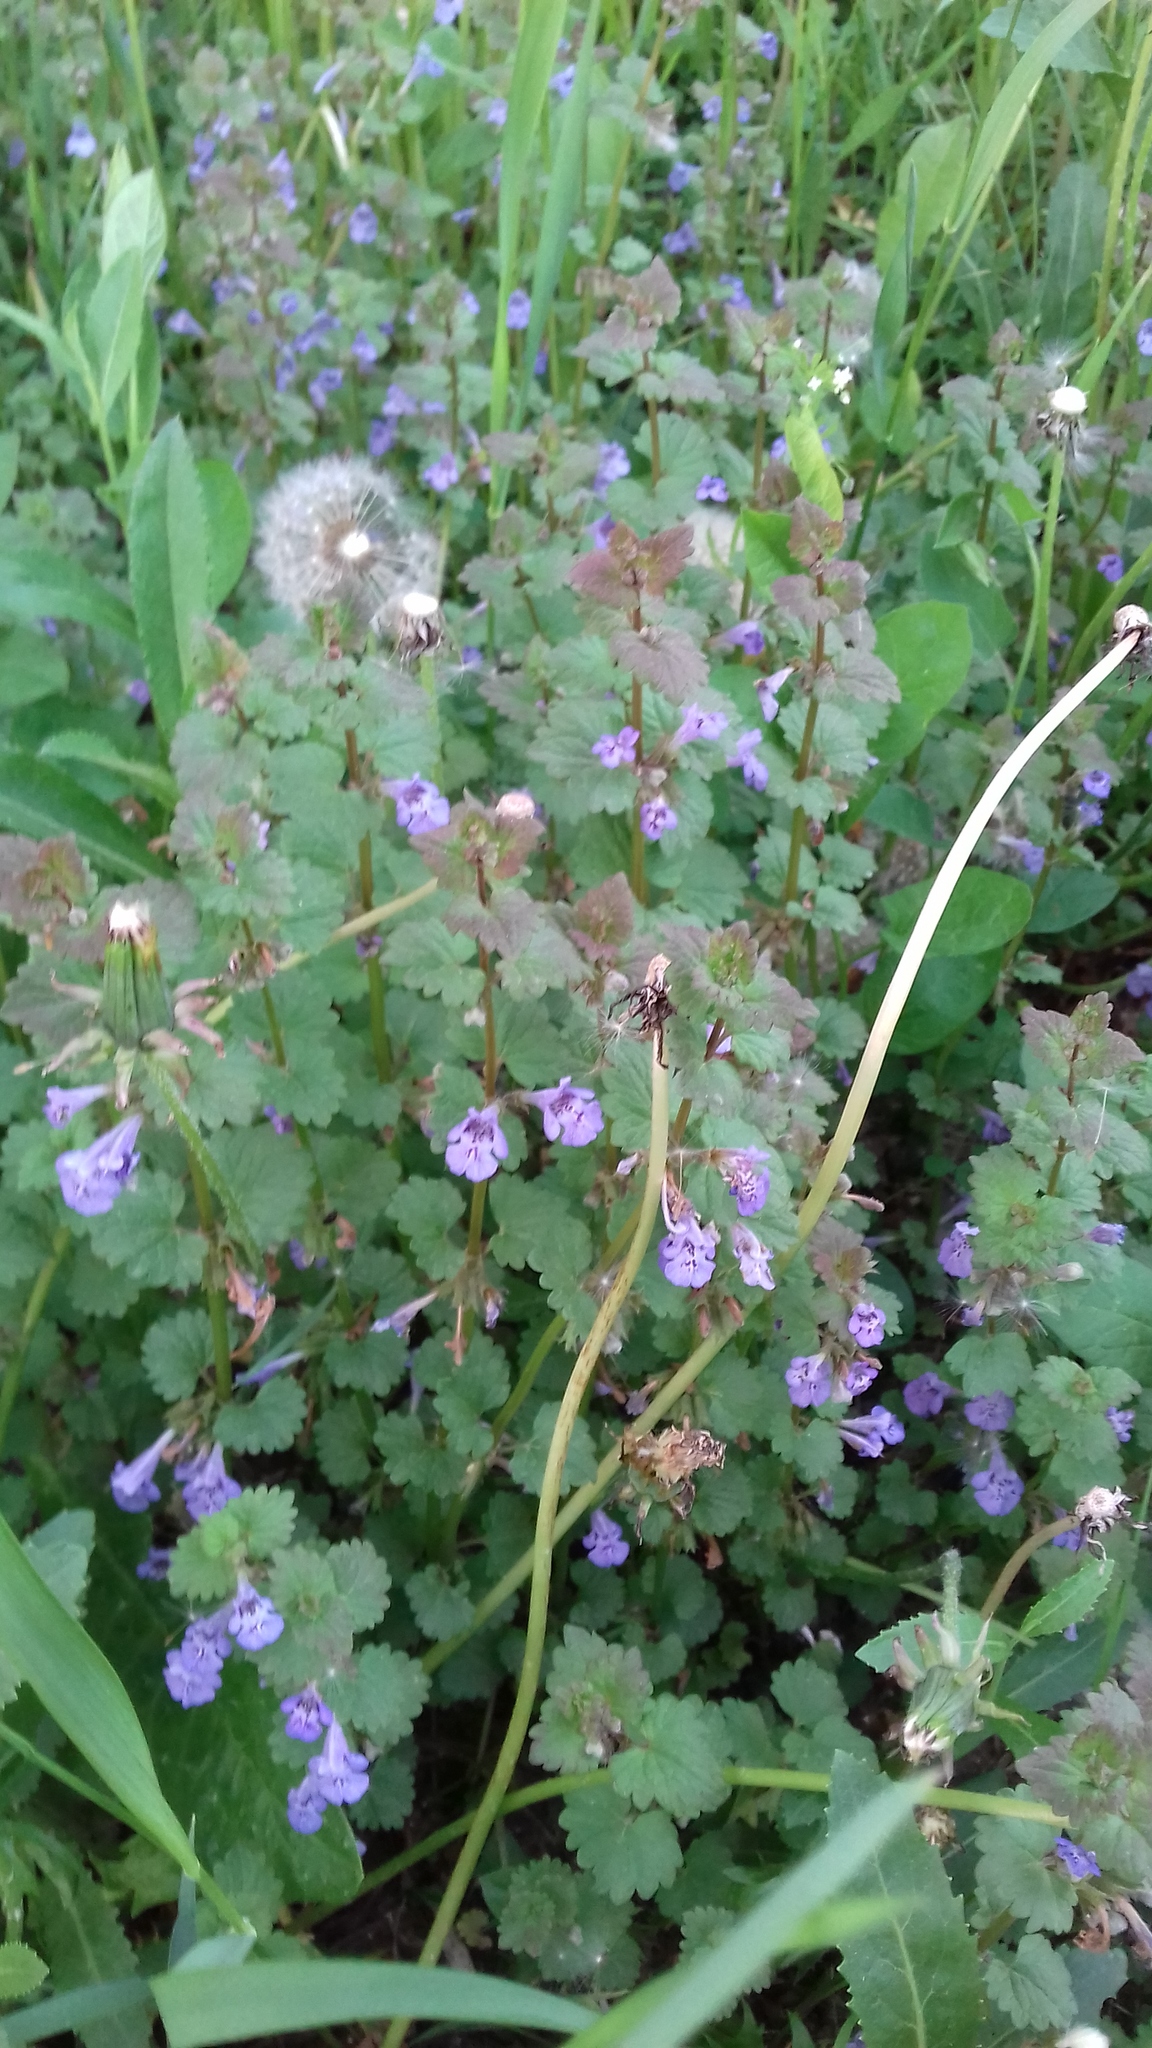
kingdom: Plantae
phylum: Tracheophyta
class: Magnoliopsida
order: Lamiales
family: Lamiaceae
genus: Glechoma
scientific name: Glechoma hederacea
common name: Ground ivy
